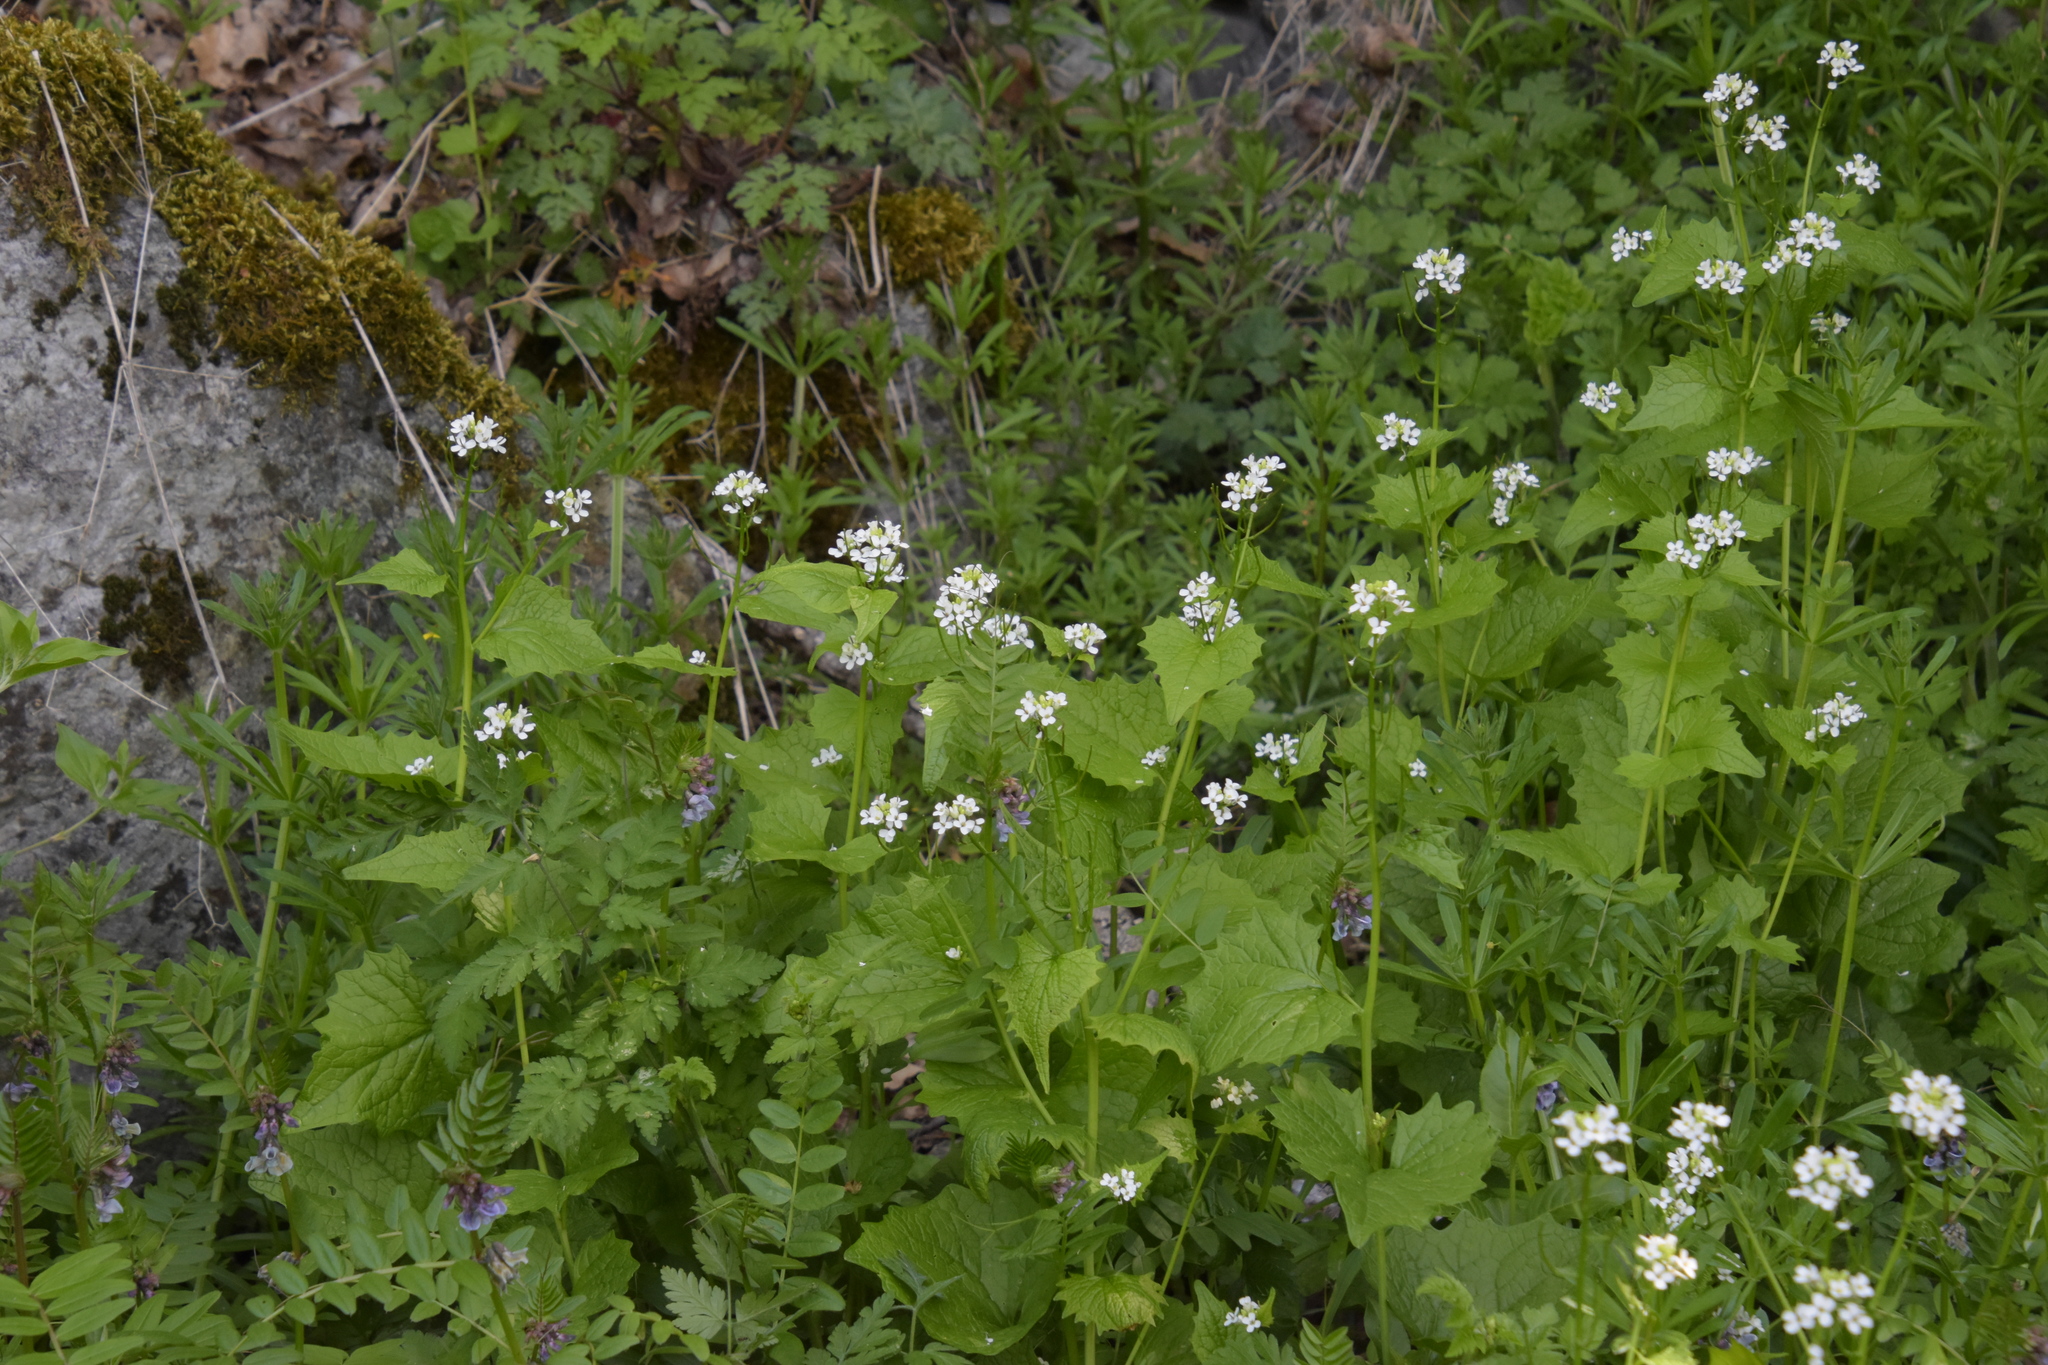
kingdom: Plantae
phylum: Tracheophyta
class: Magnoliopsida
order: Brassicales
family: Brassicaceae
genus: Alliaria
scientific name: Alliaria petiolata
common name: Garlic mustard
